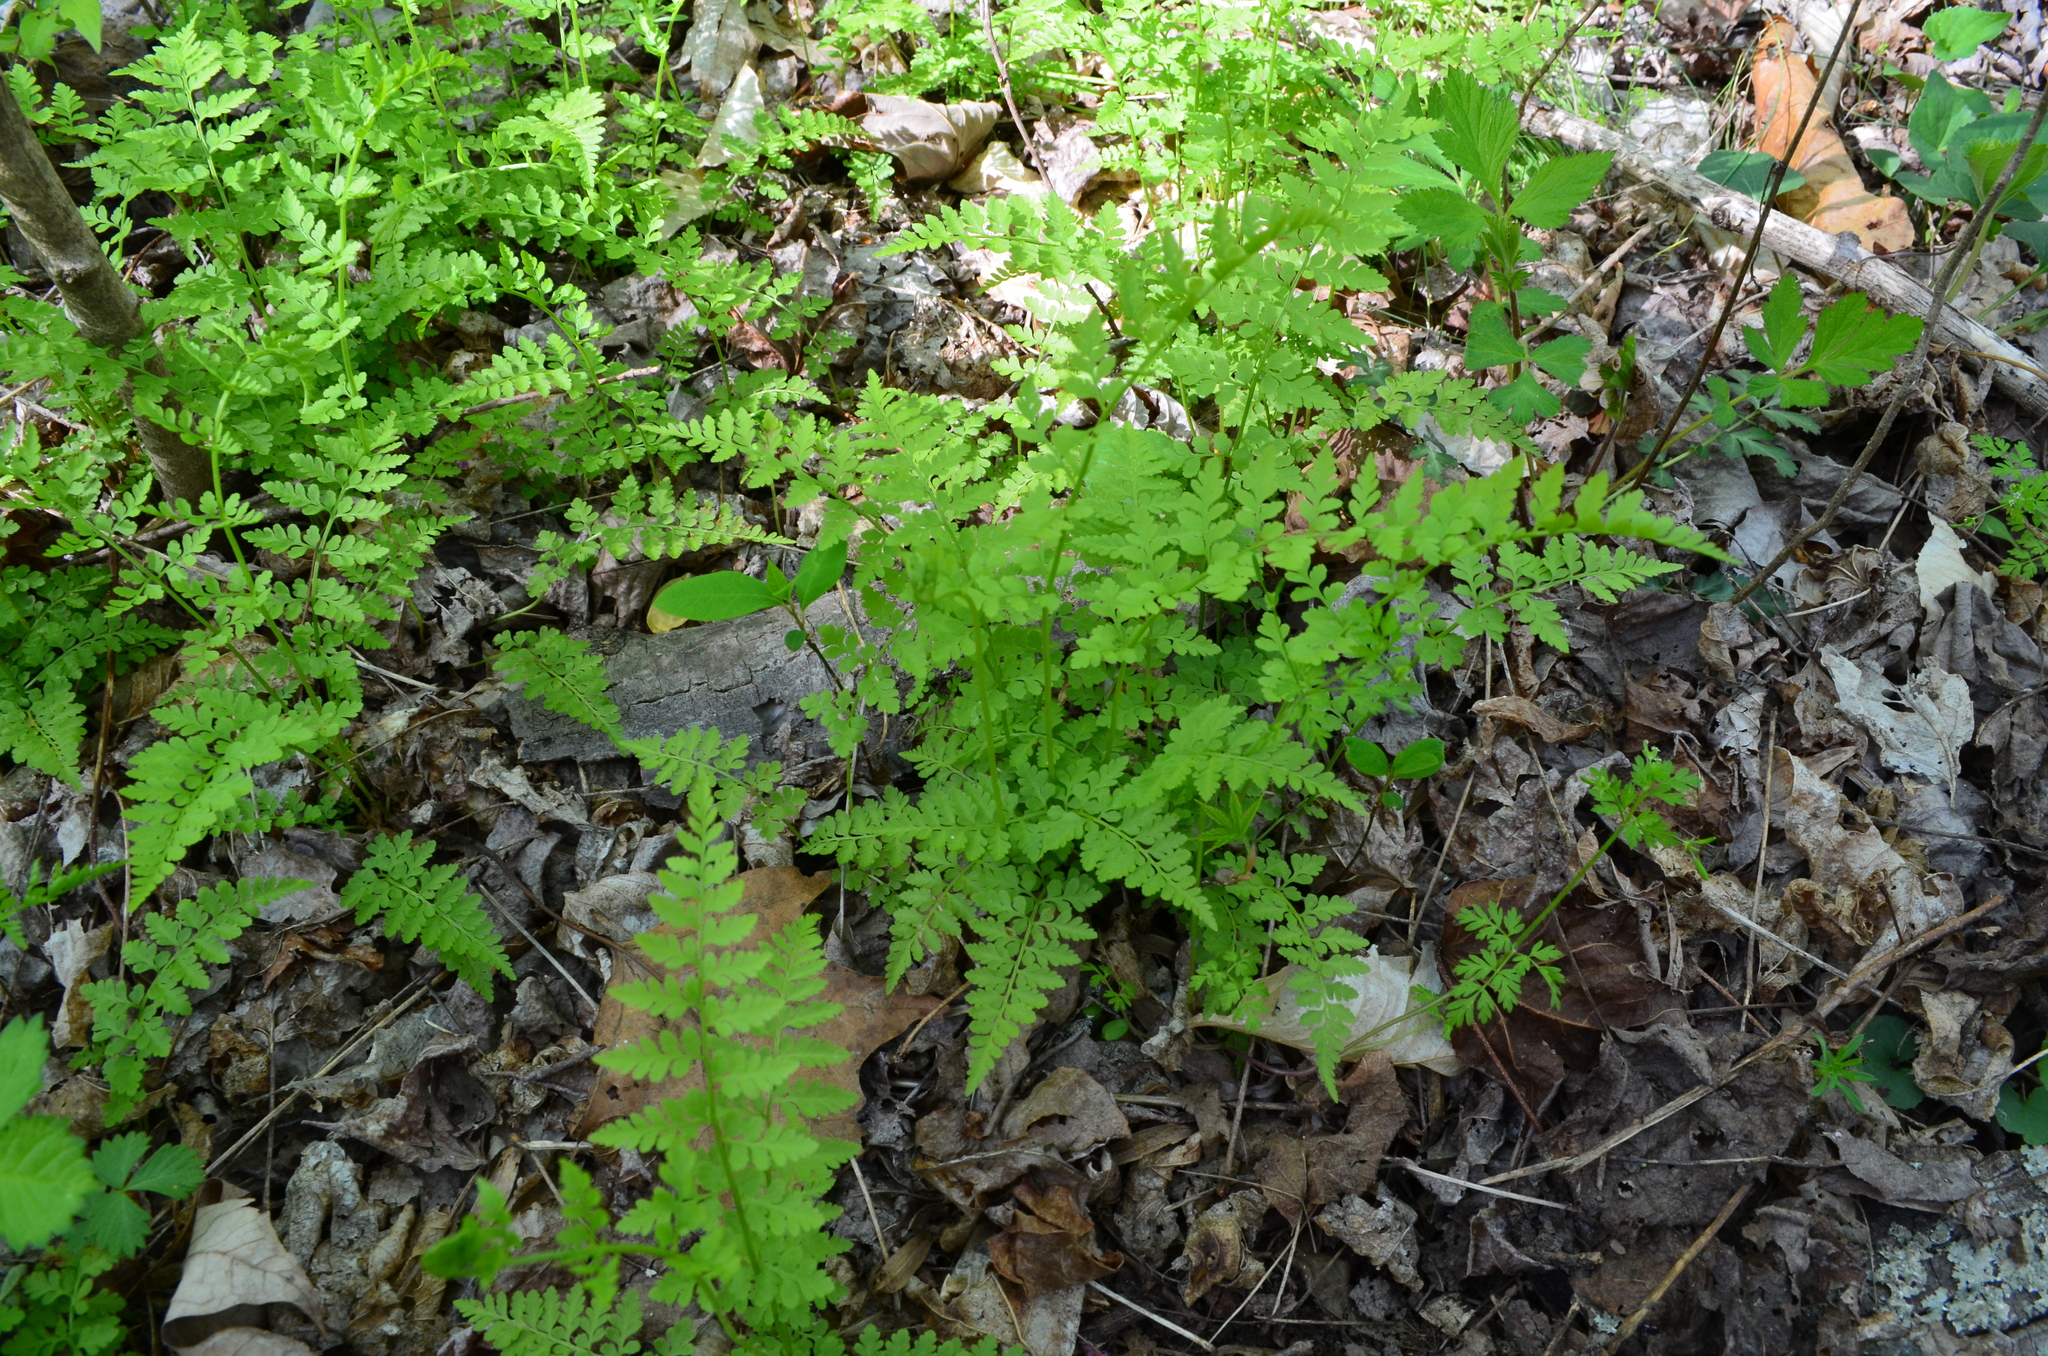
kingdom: Plantae
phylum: Tracheophyta
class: Polypodiopsida
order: Polypodiales
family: Cystopteridaceae
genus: Cystopteris
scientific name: Cystopteris protrusa
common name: Lowland brittle fern
